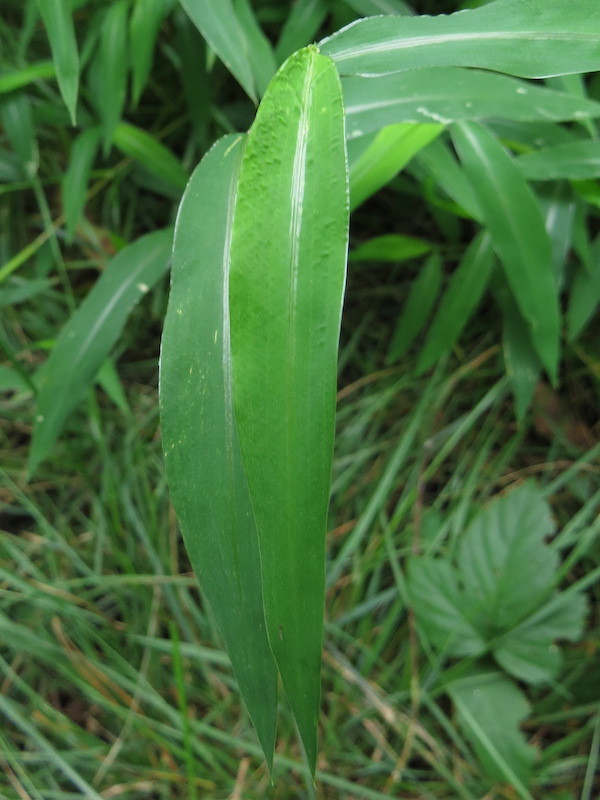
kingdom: Plantae
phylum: Tracheophyta
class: Liliopsida
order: Poales
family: Poaceae
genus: Microstegium
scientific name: Microstegium vimineum
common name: Japanese stiltgrass
